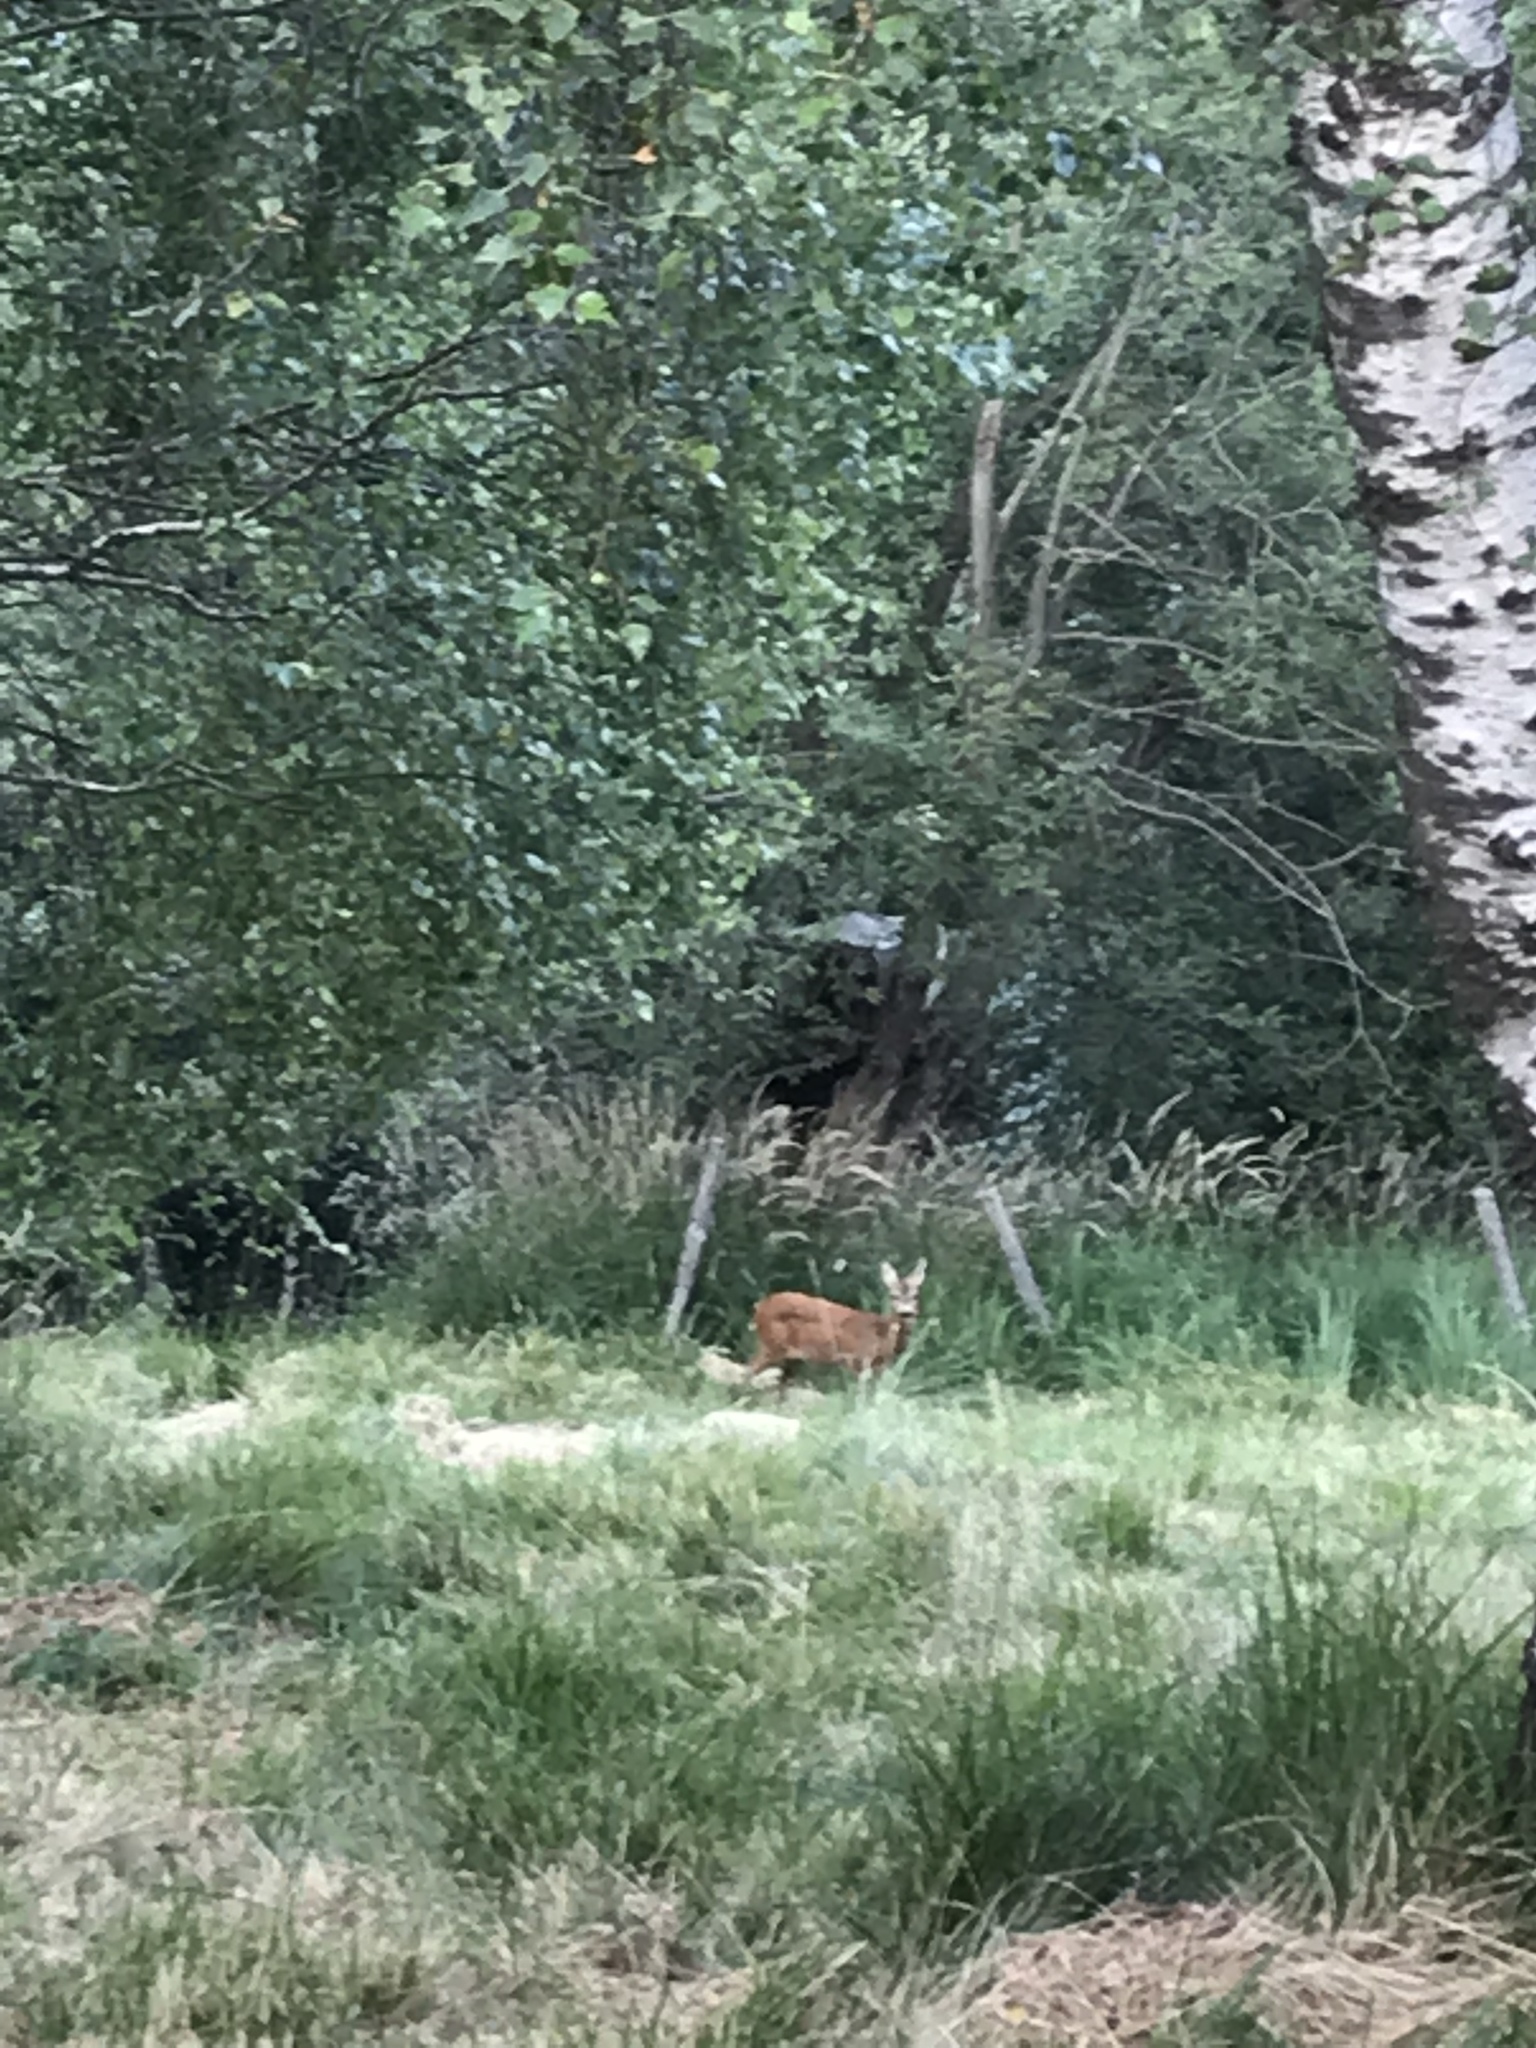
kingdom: Animalia
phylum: Chordata
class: Mammalia
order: Artiodactyla
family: Cervidae
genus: Capreolus
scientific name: Capreolus capreolus
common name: Western roe deer
